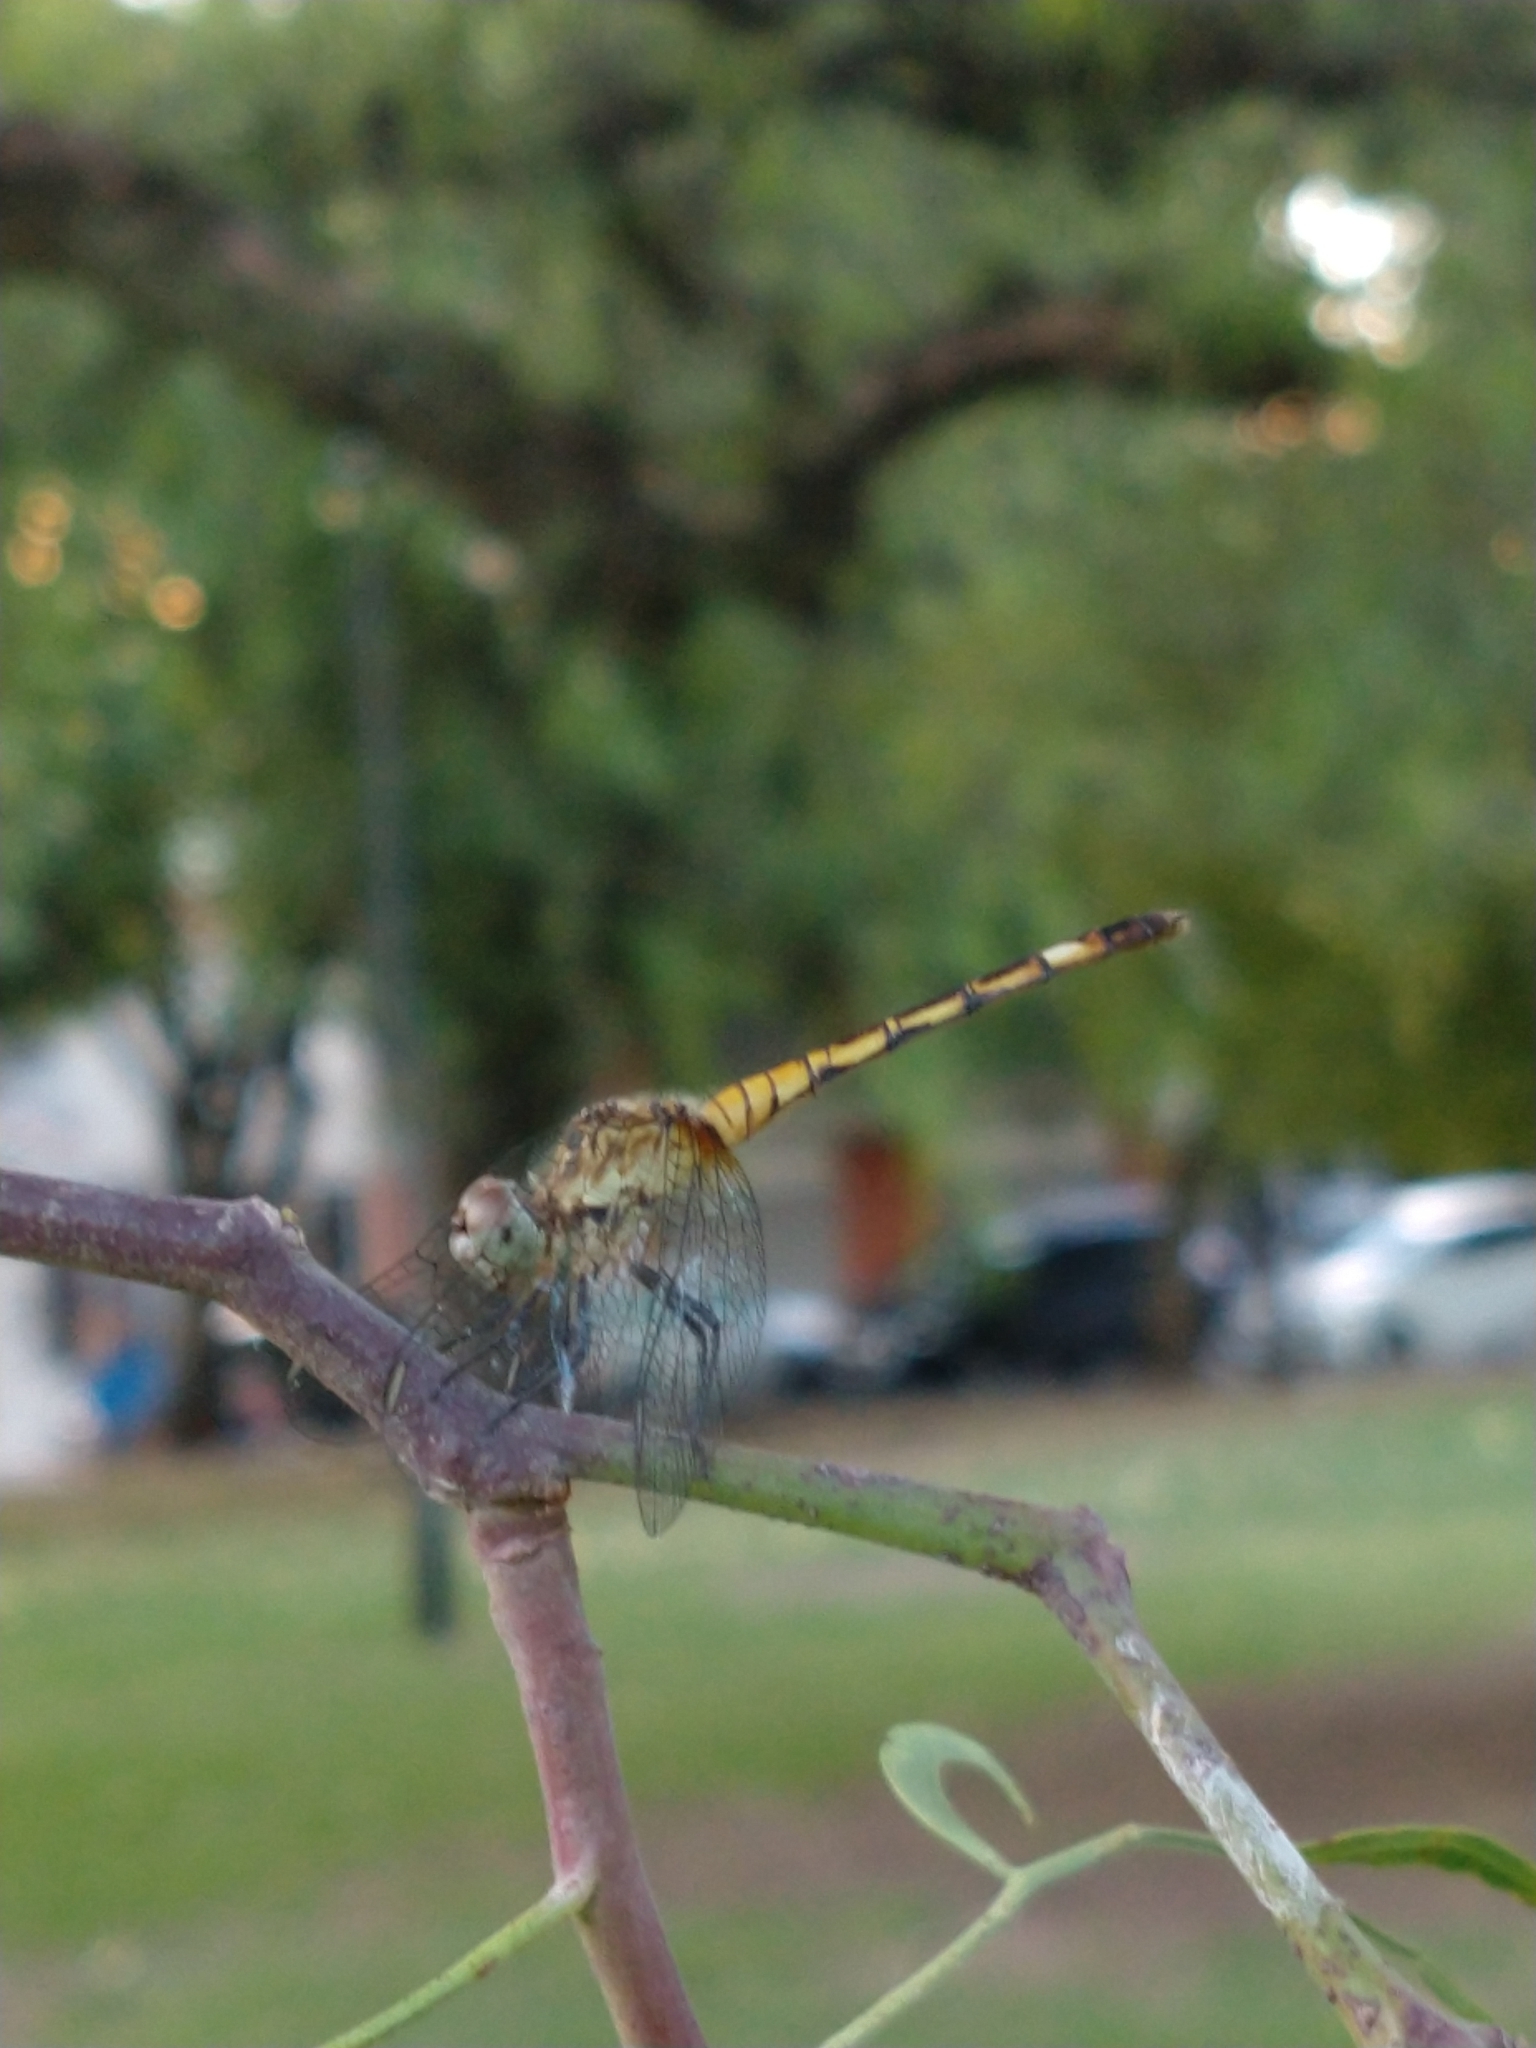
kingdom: Animalia
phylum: Arthropoda
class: Insecta
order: Odonata
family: Libellulidae
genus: Micrathyria
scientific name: Micrathyria longifasciata
